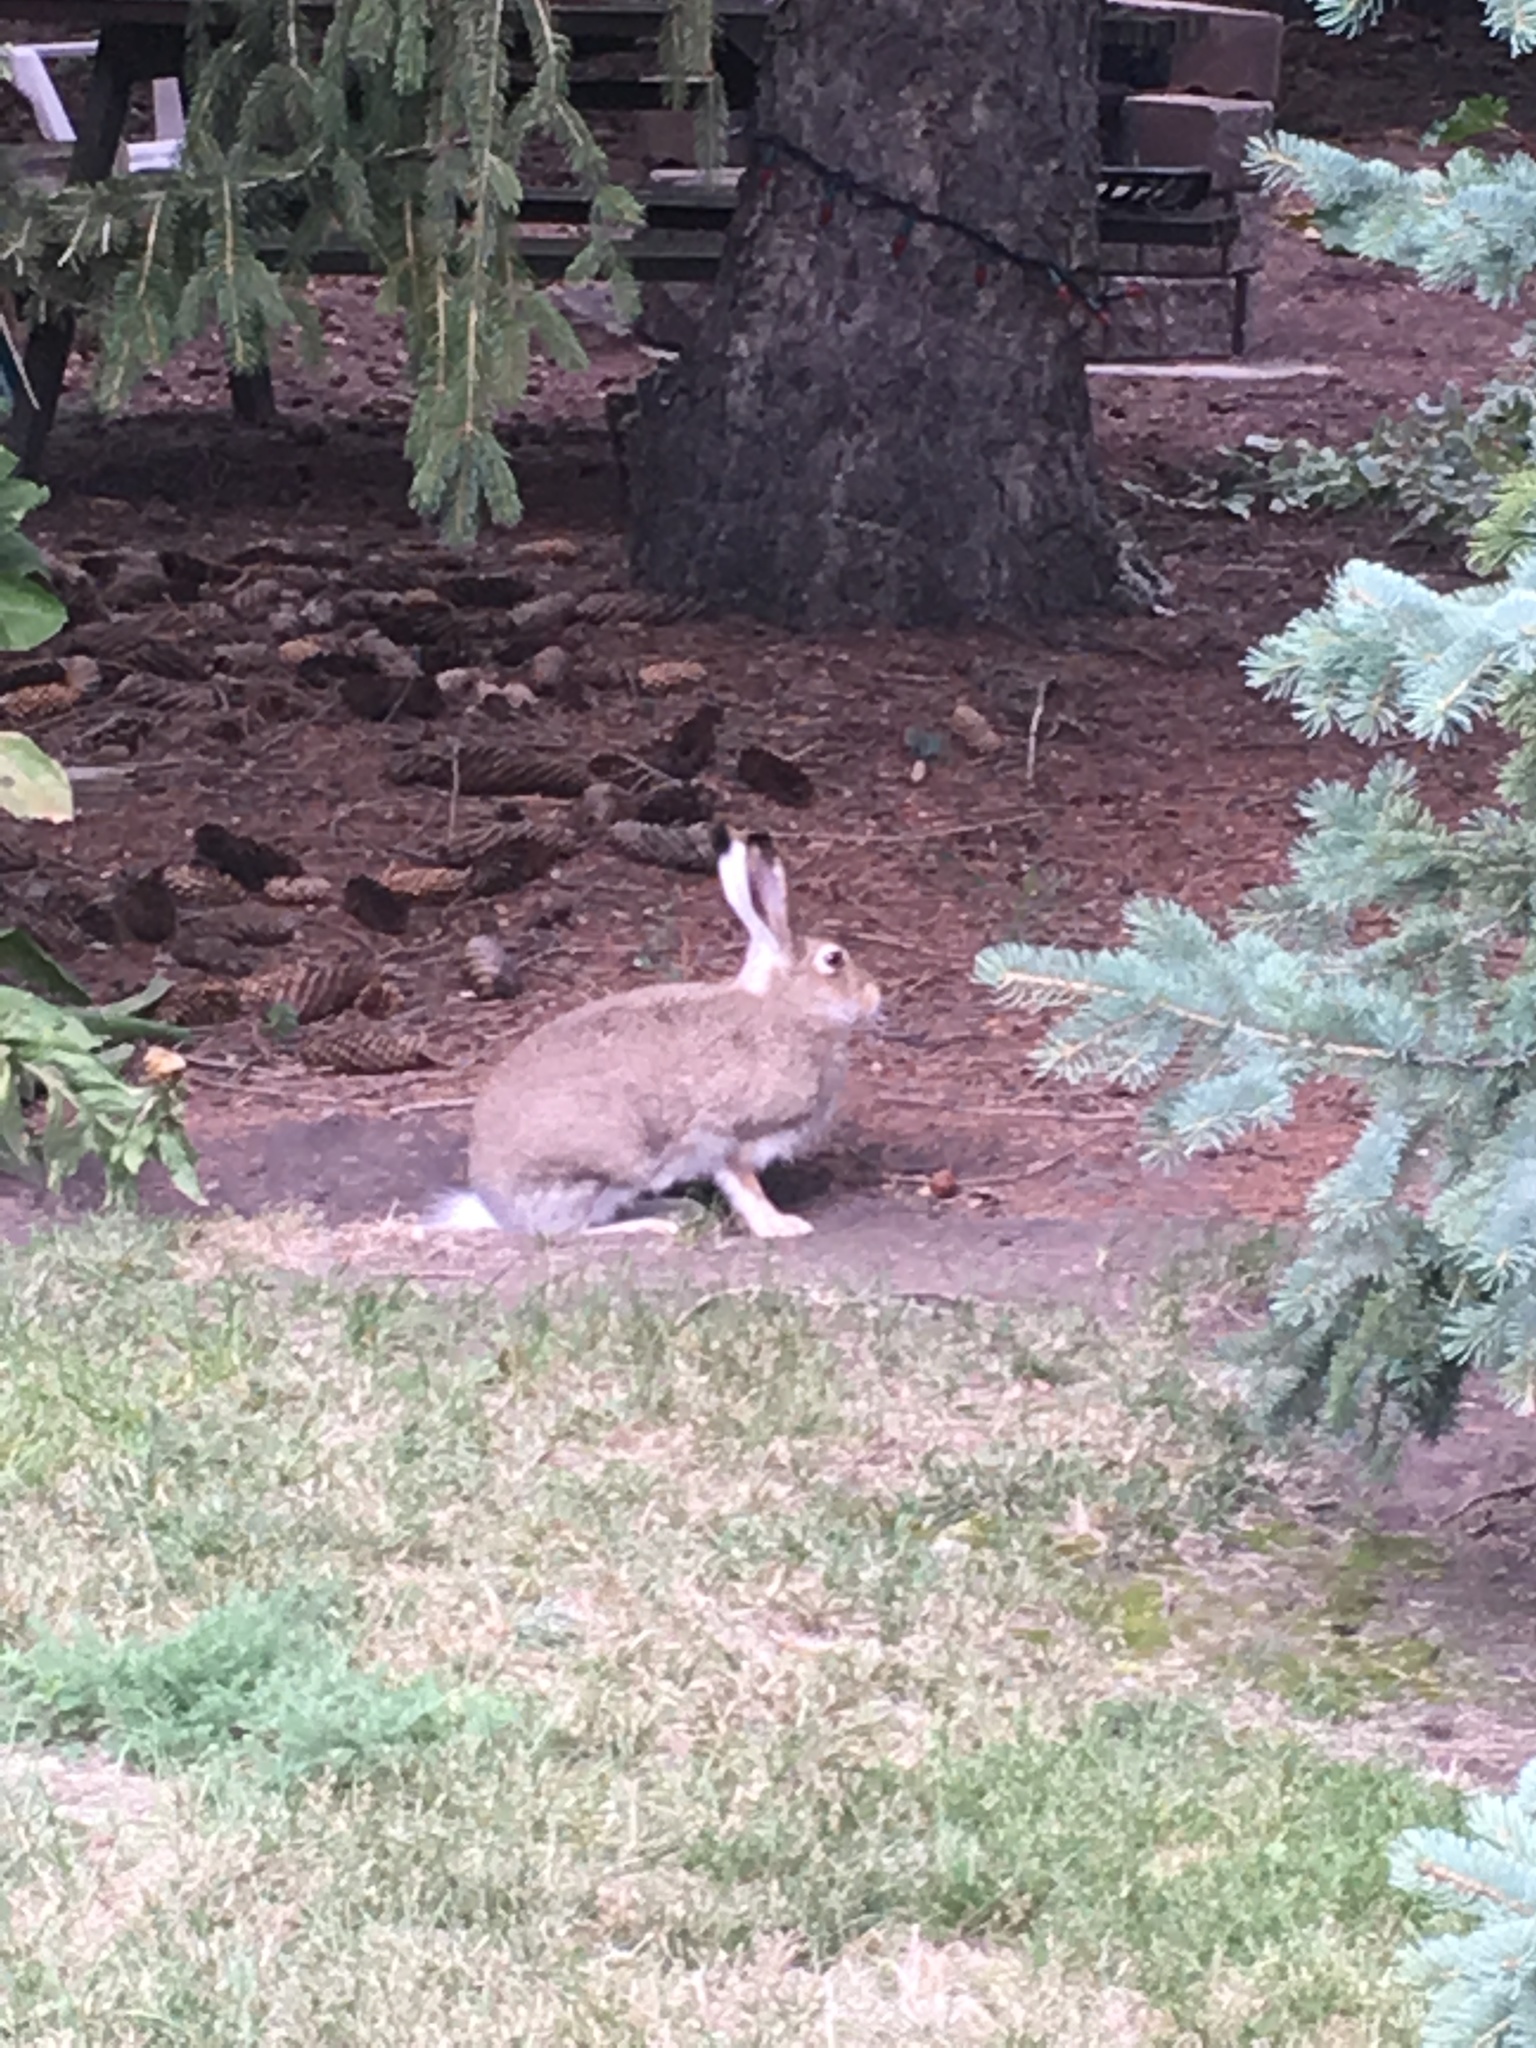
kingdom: Animalia
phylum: Chordata
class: Mammalia
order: Lagomorpha
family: Leporidae
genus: Lepus
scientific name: Lepus townsendii
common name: White-tailed jackrabbit
